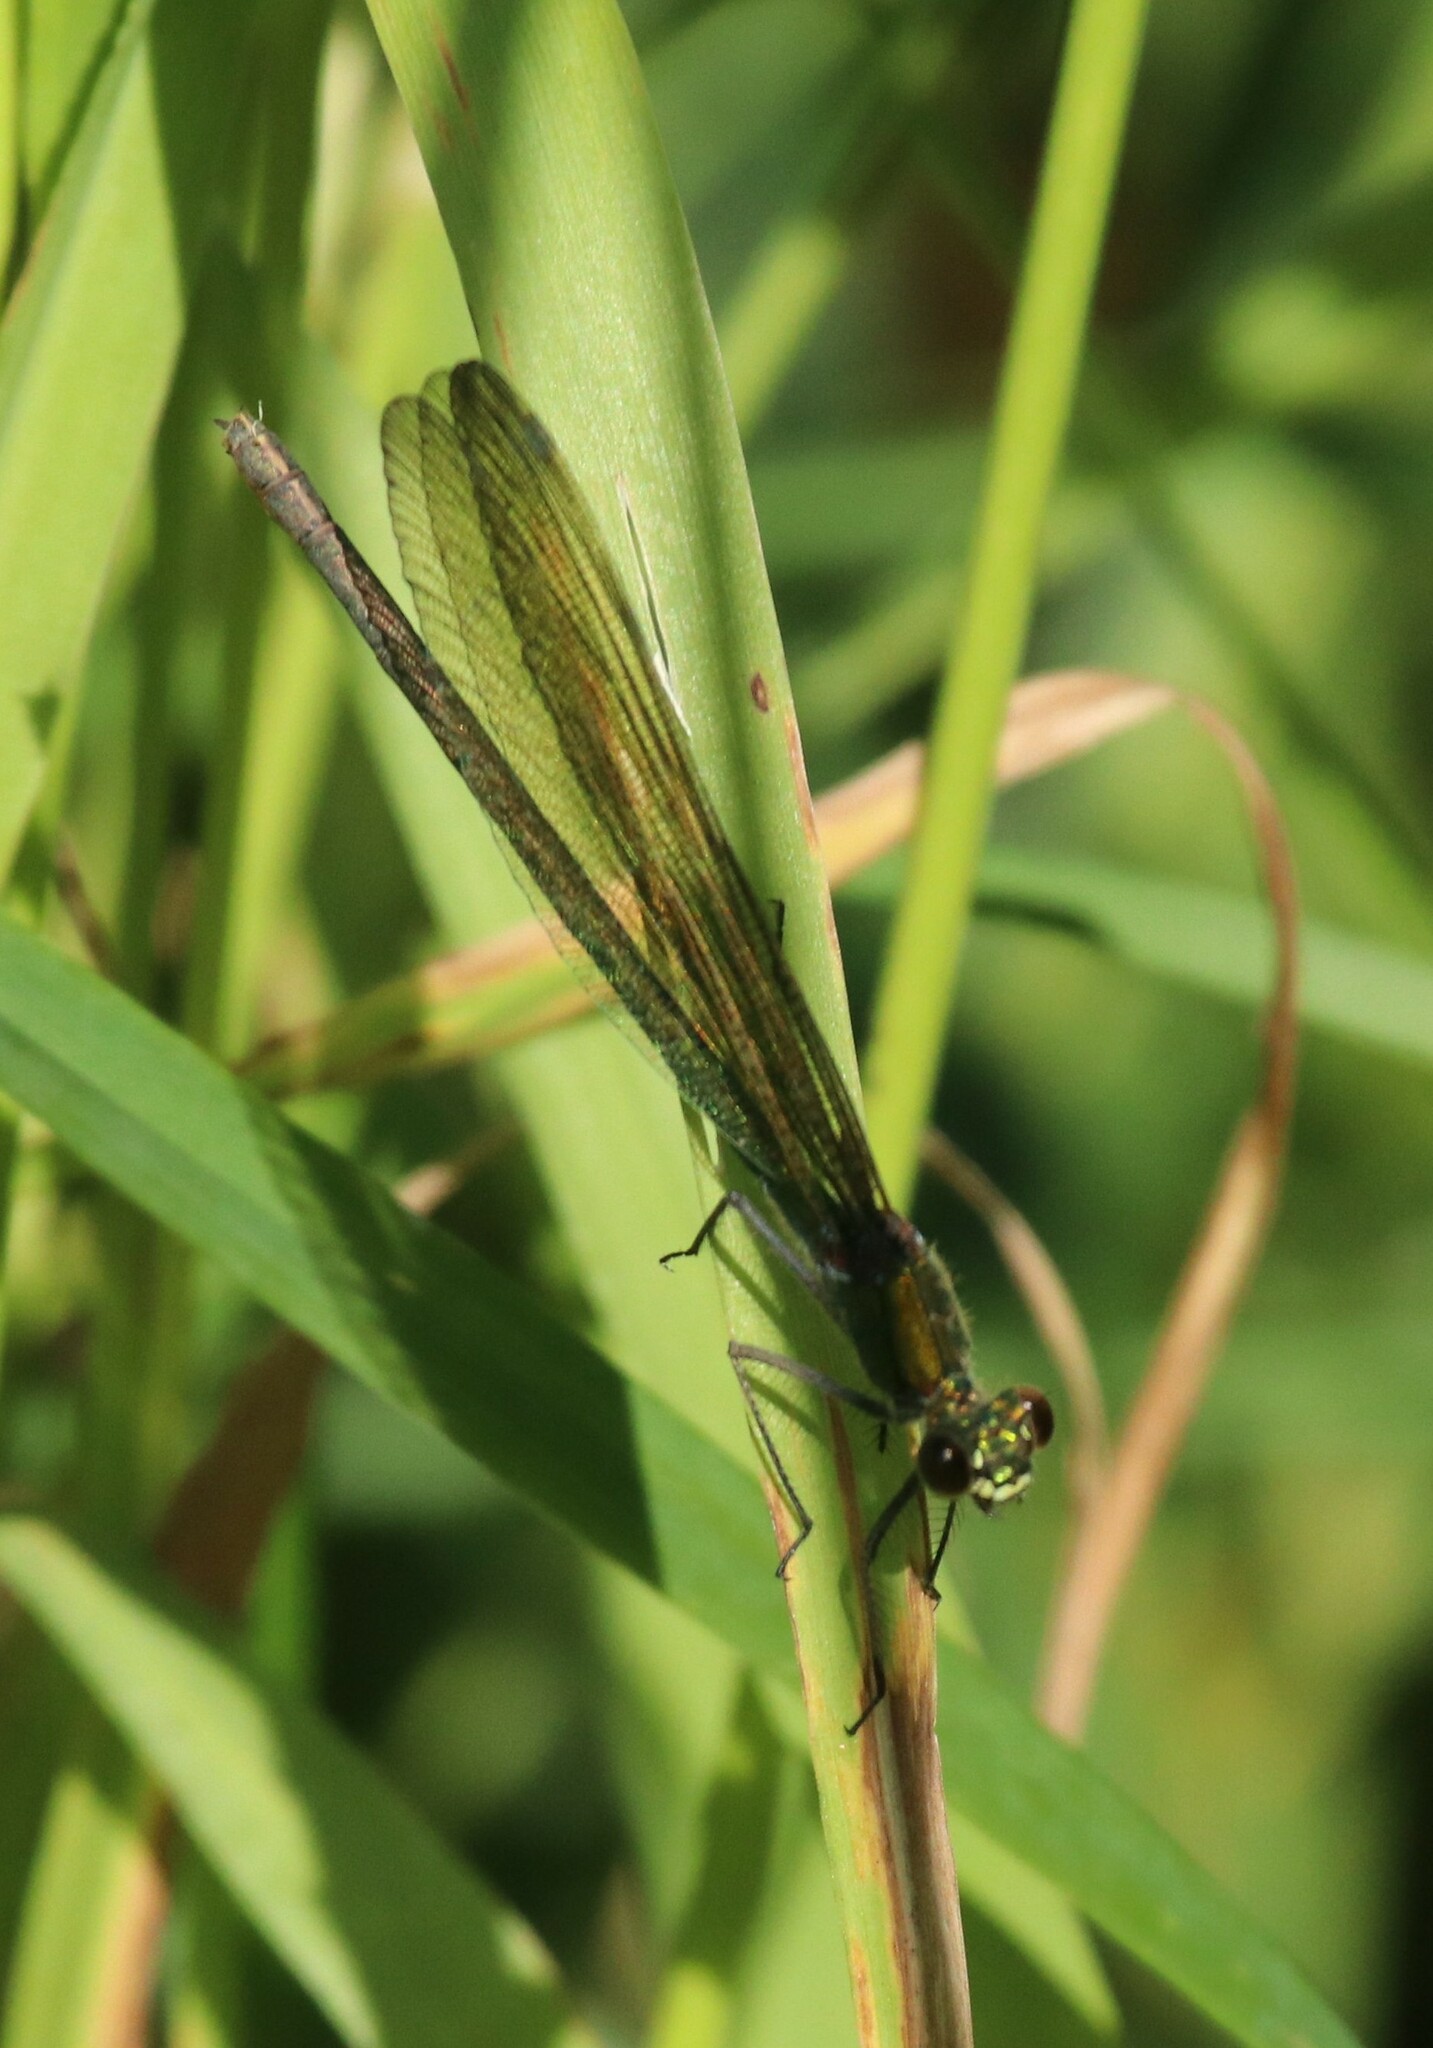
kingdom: Animalia
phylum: Arthropoda
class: Insecta
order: Odonata
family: Calopterygidae
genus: Calopteryx
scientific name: Calopteryx splendens
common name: Banded demoiselle
